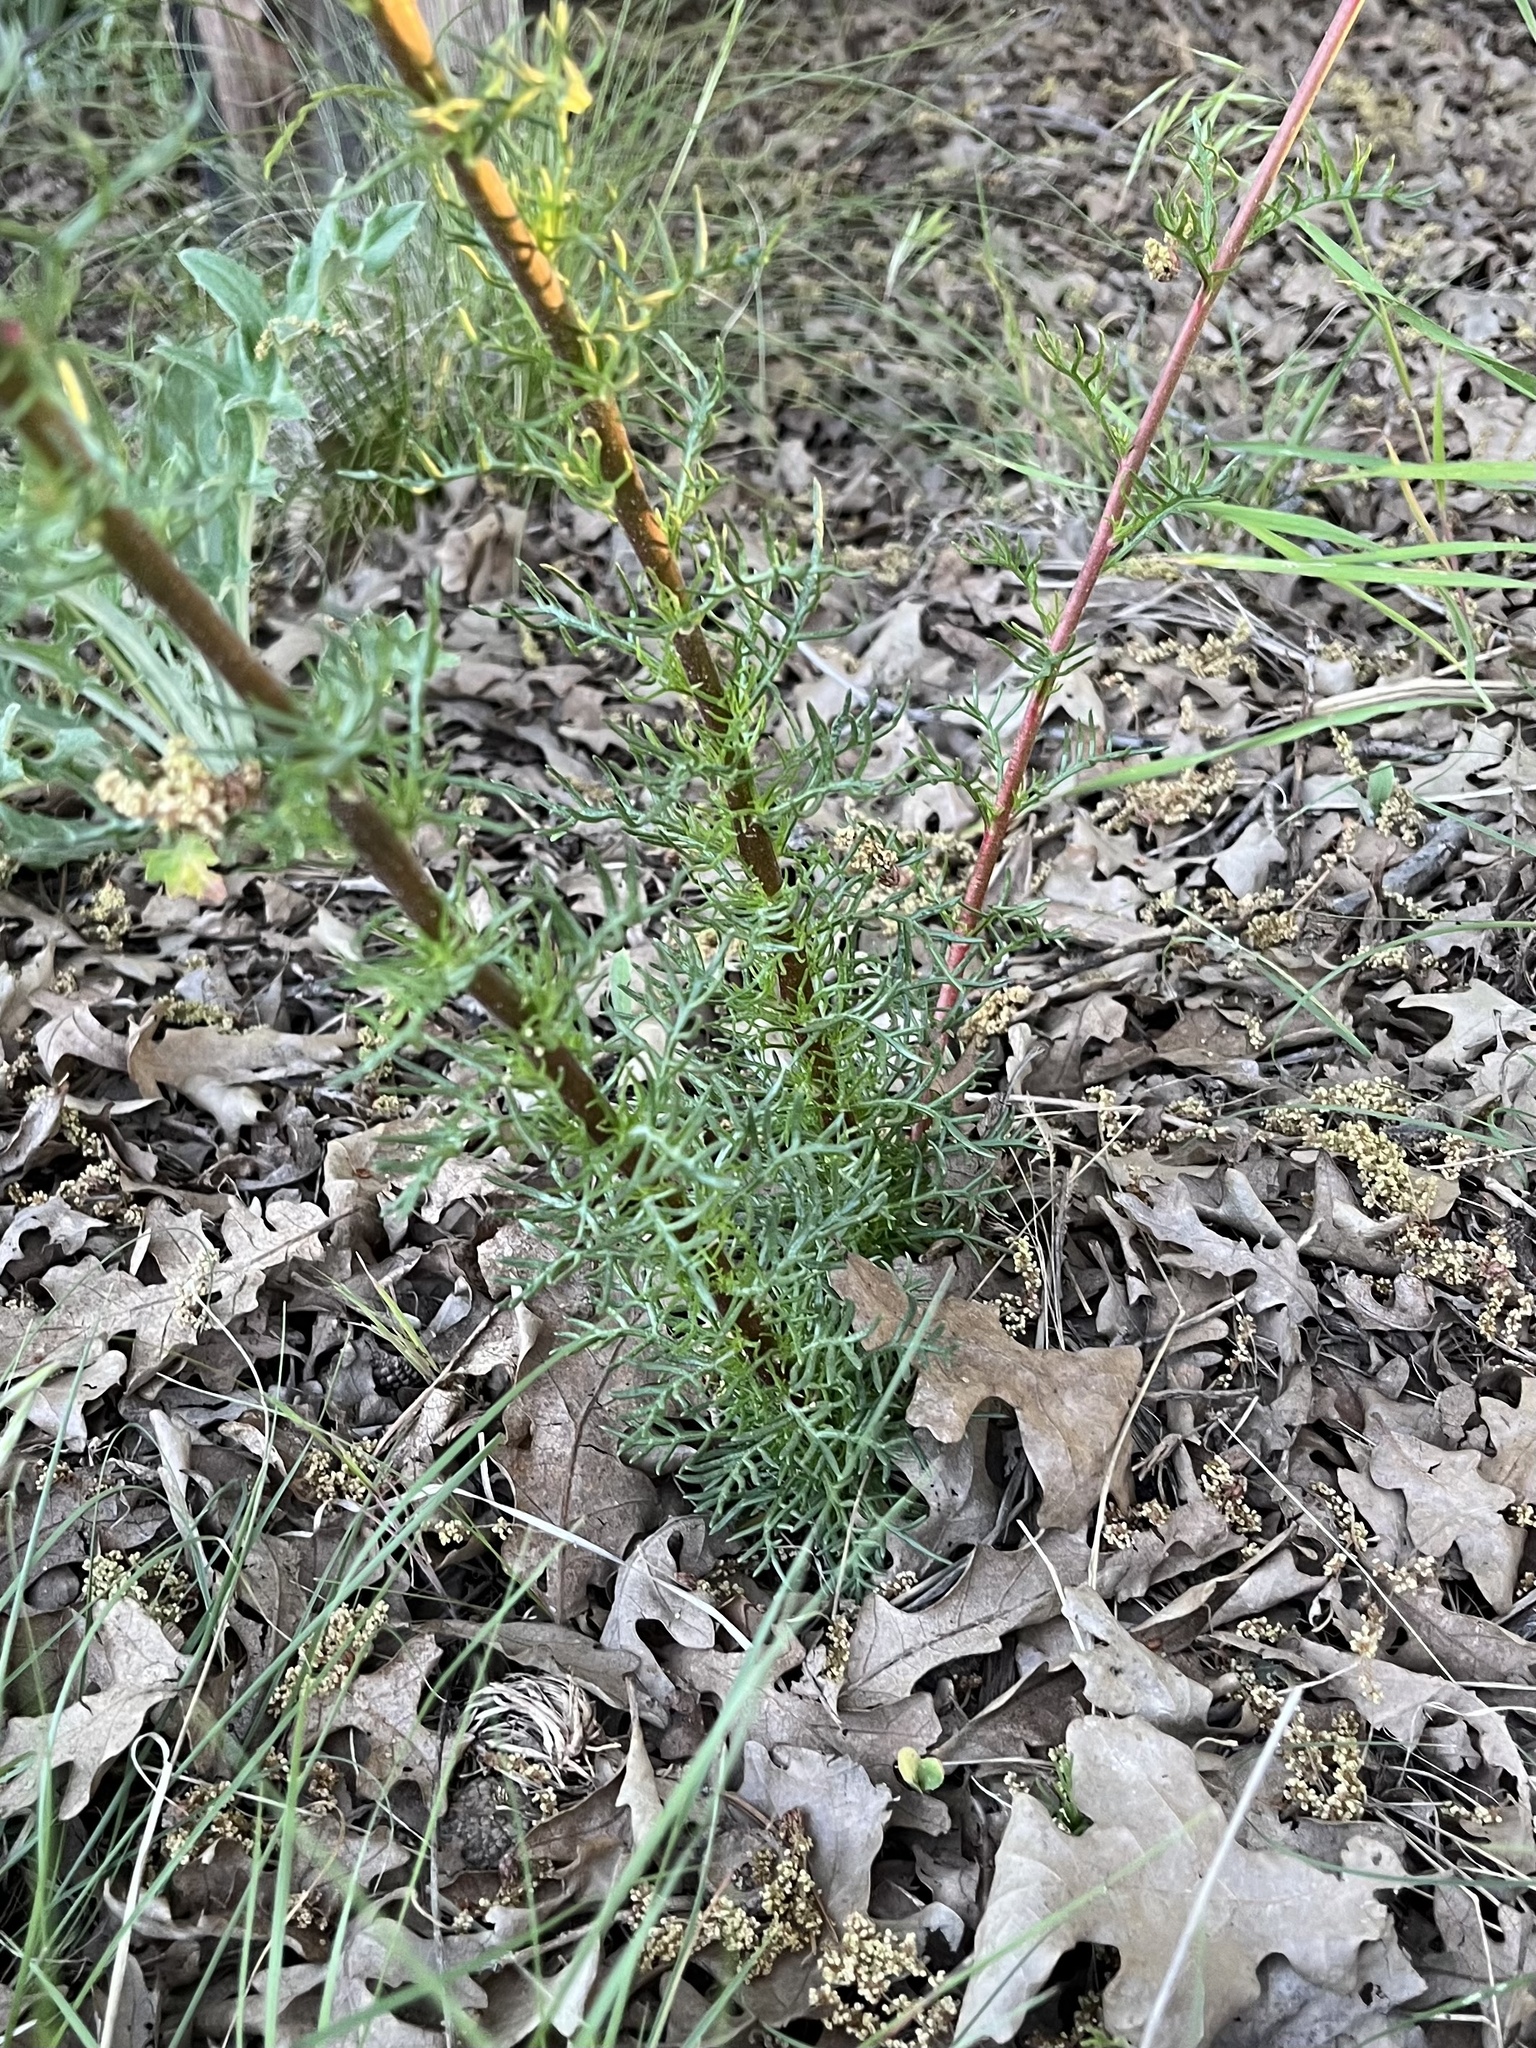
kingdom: Plantae
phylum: Tracheophyta
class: Magnoliopsida
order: Ericales
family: Polemoniaceae
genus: Ipomopsis
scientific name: Ipomopsis arizonica
